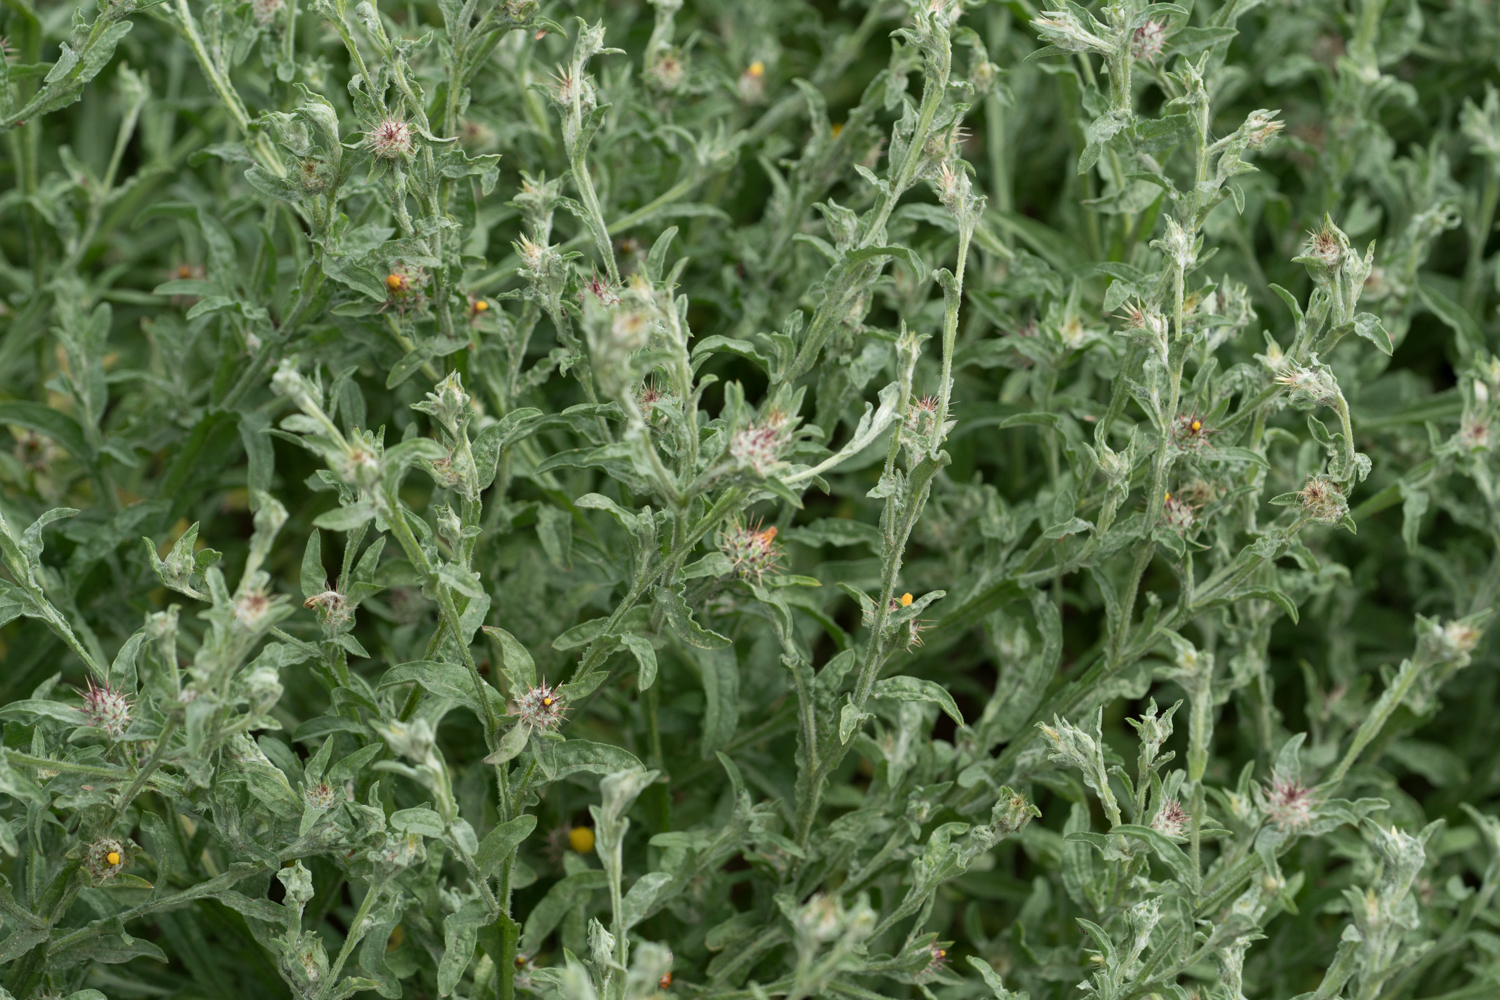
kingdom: Plantae
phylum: Tracheophyta
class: Magnoliopsida
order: Asterales
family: Asteraceae
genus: Centaurea
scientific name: Centaurea melitensis
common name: Maltese star-thistle
